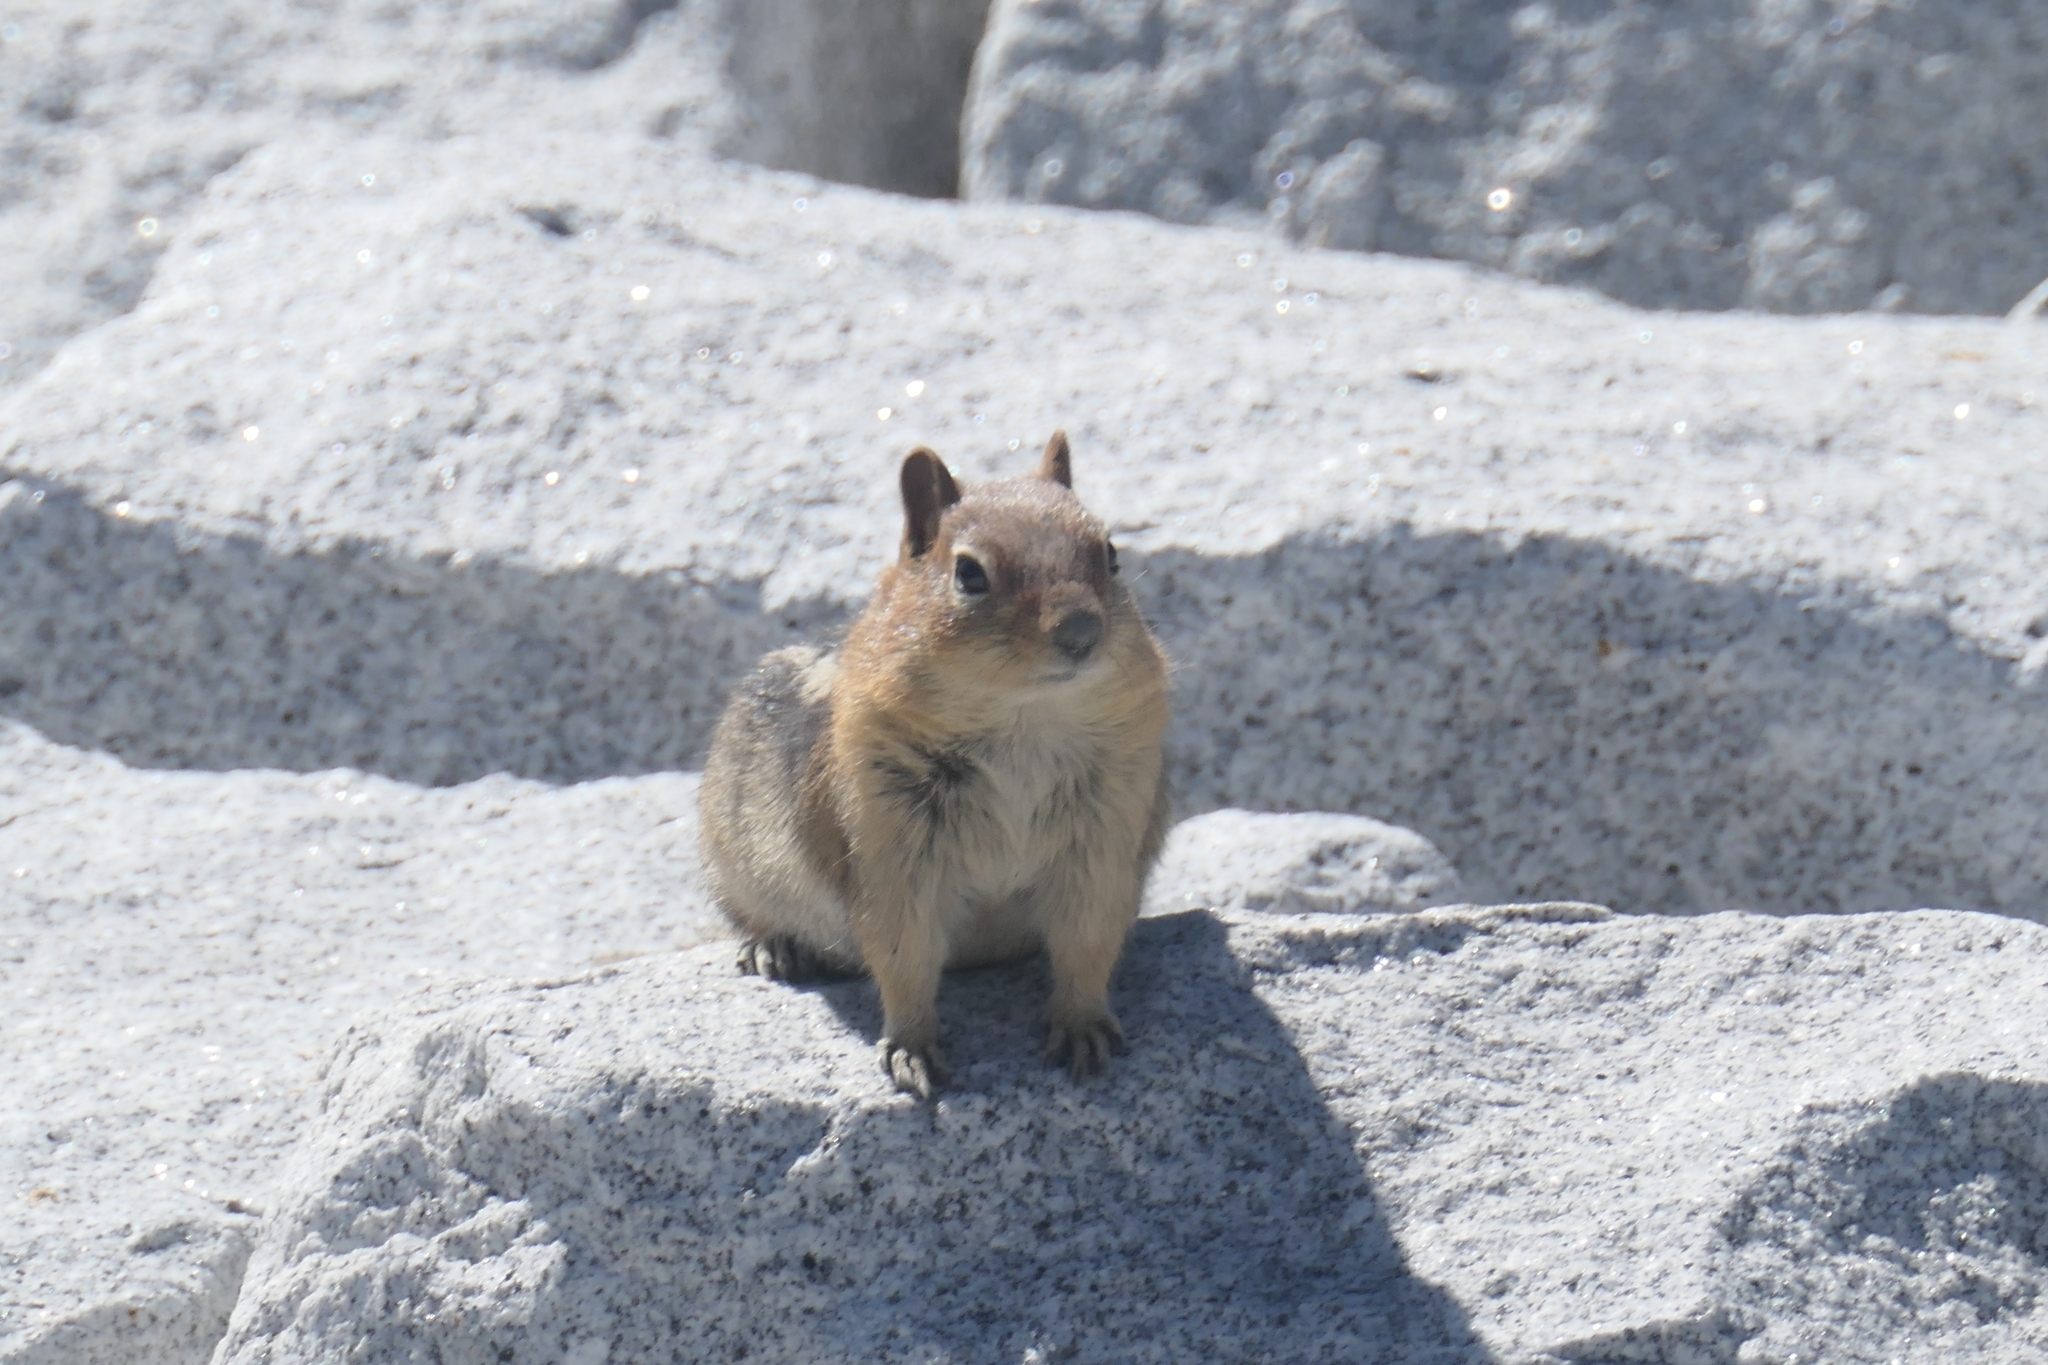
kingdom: Animalia
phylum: Chordata
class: Mammalia
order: Rodentia
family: Sciuridae
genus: Callospermophilus
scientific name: Callospermophilus lateralis
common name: Golden-mantled ground squirrel
